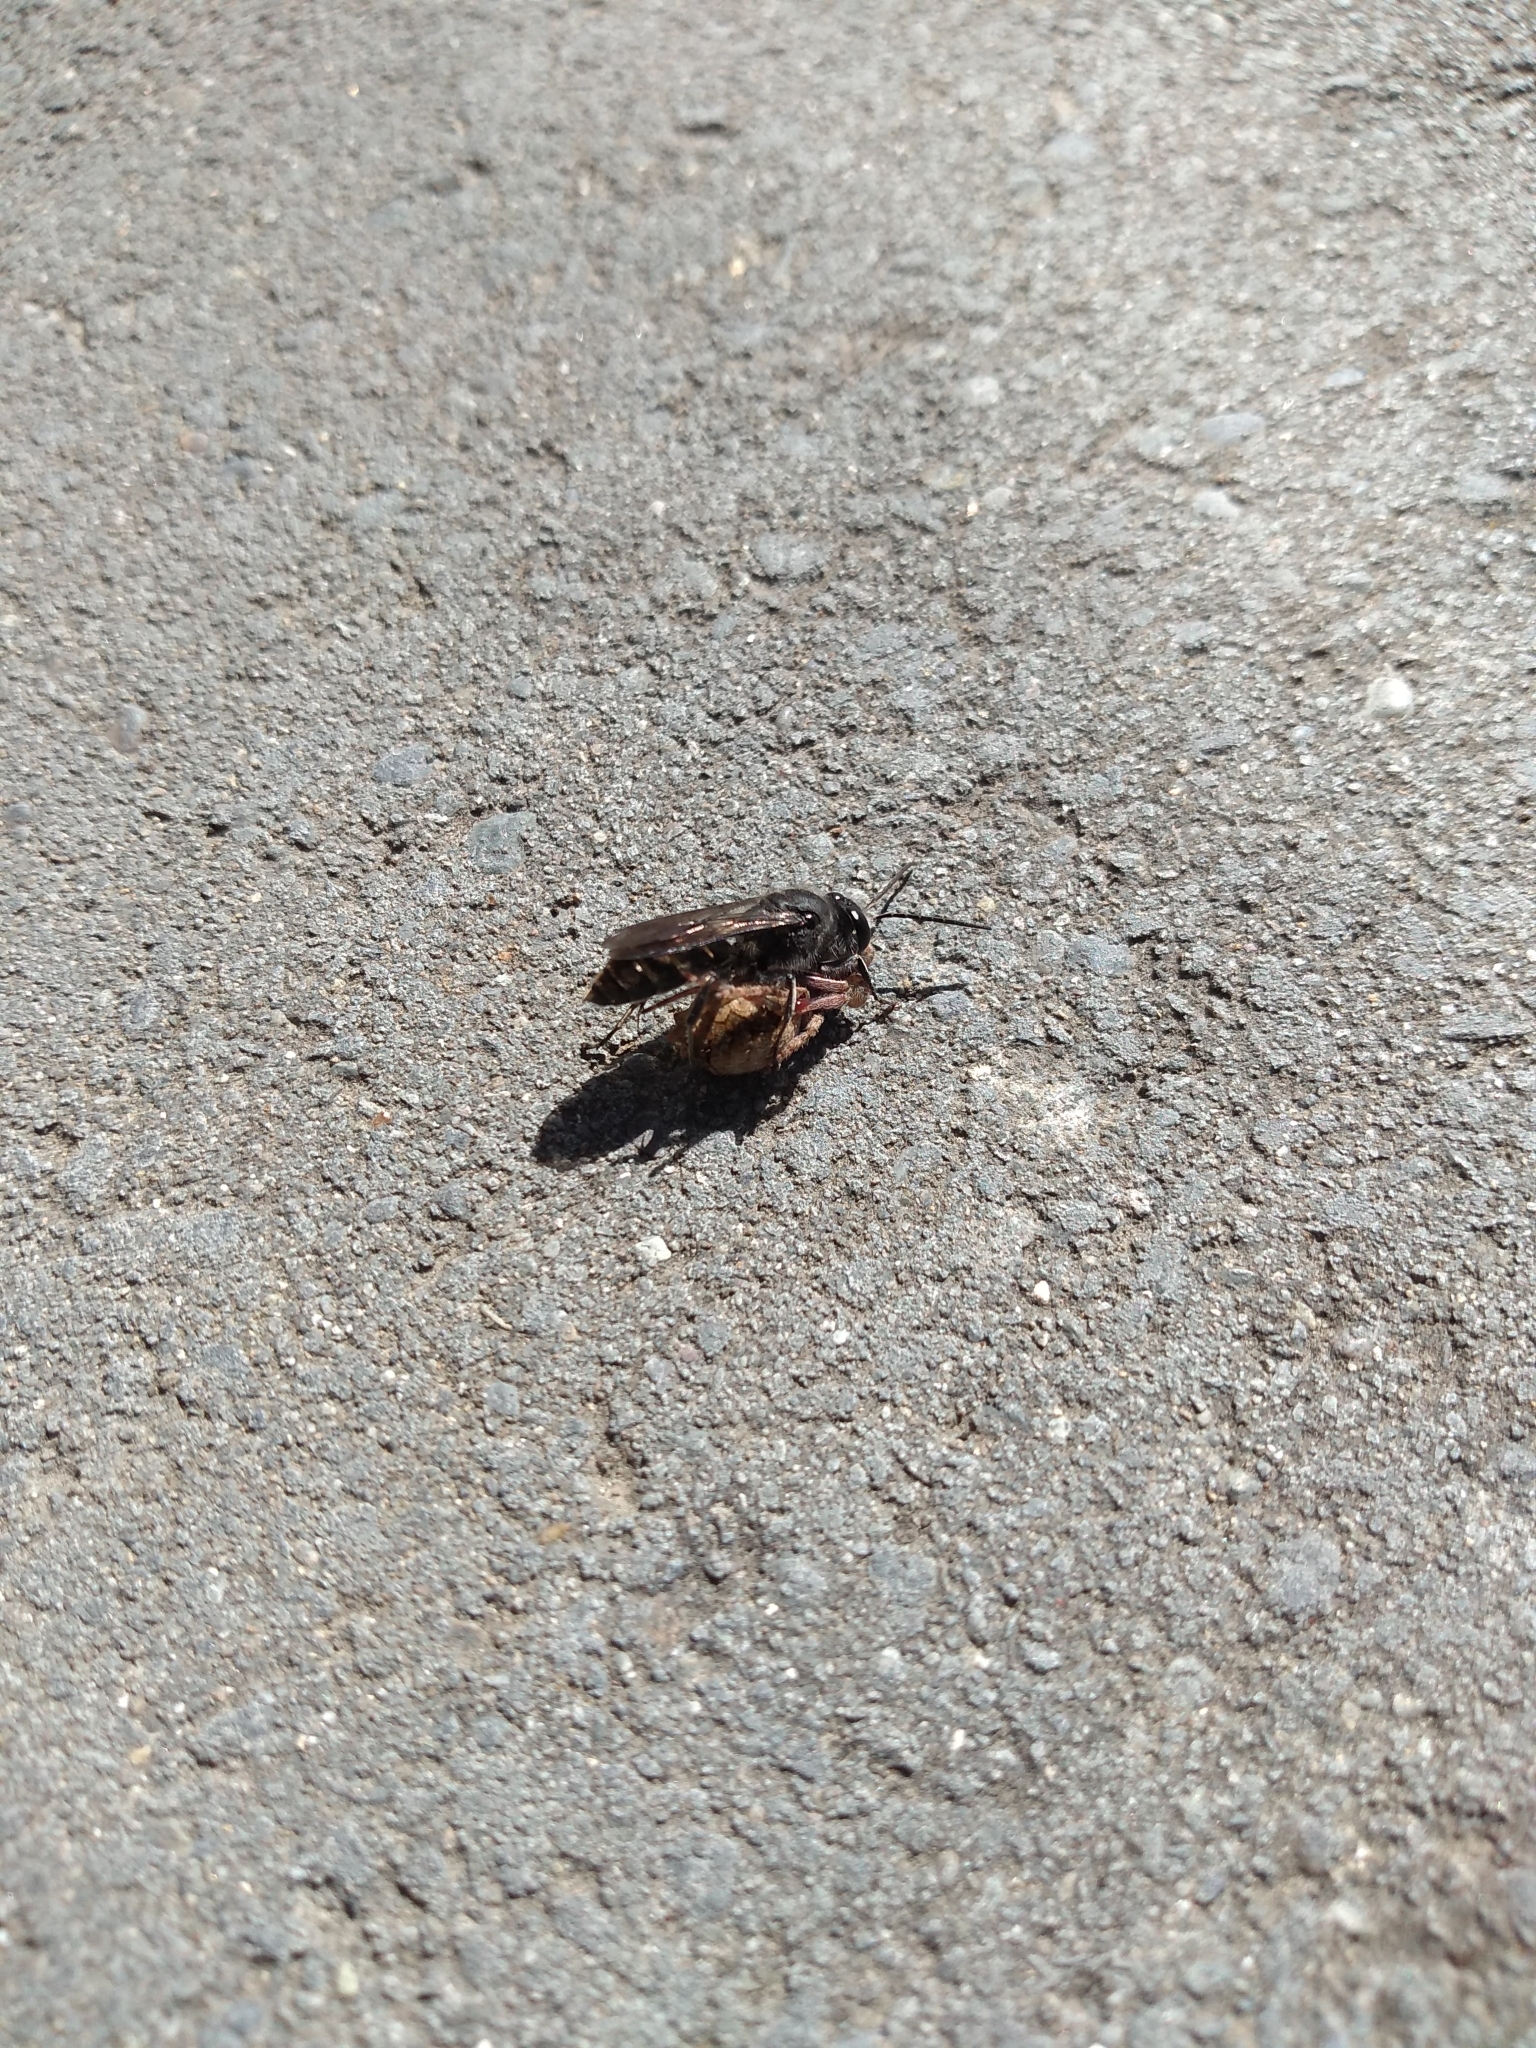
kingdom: Animalia
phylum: Arthropoda
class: Insecta
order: Hymenoptera
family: Crabronidae
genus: Pison
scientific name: Pison spinolae
